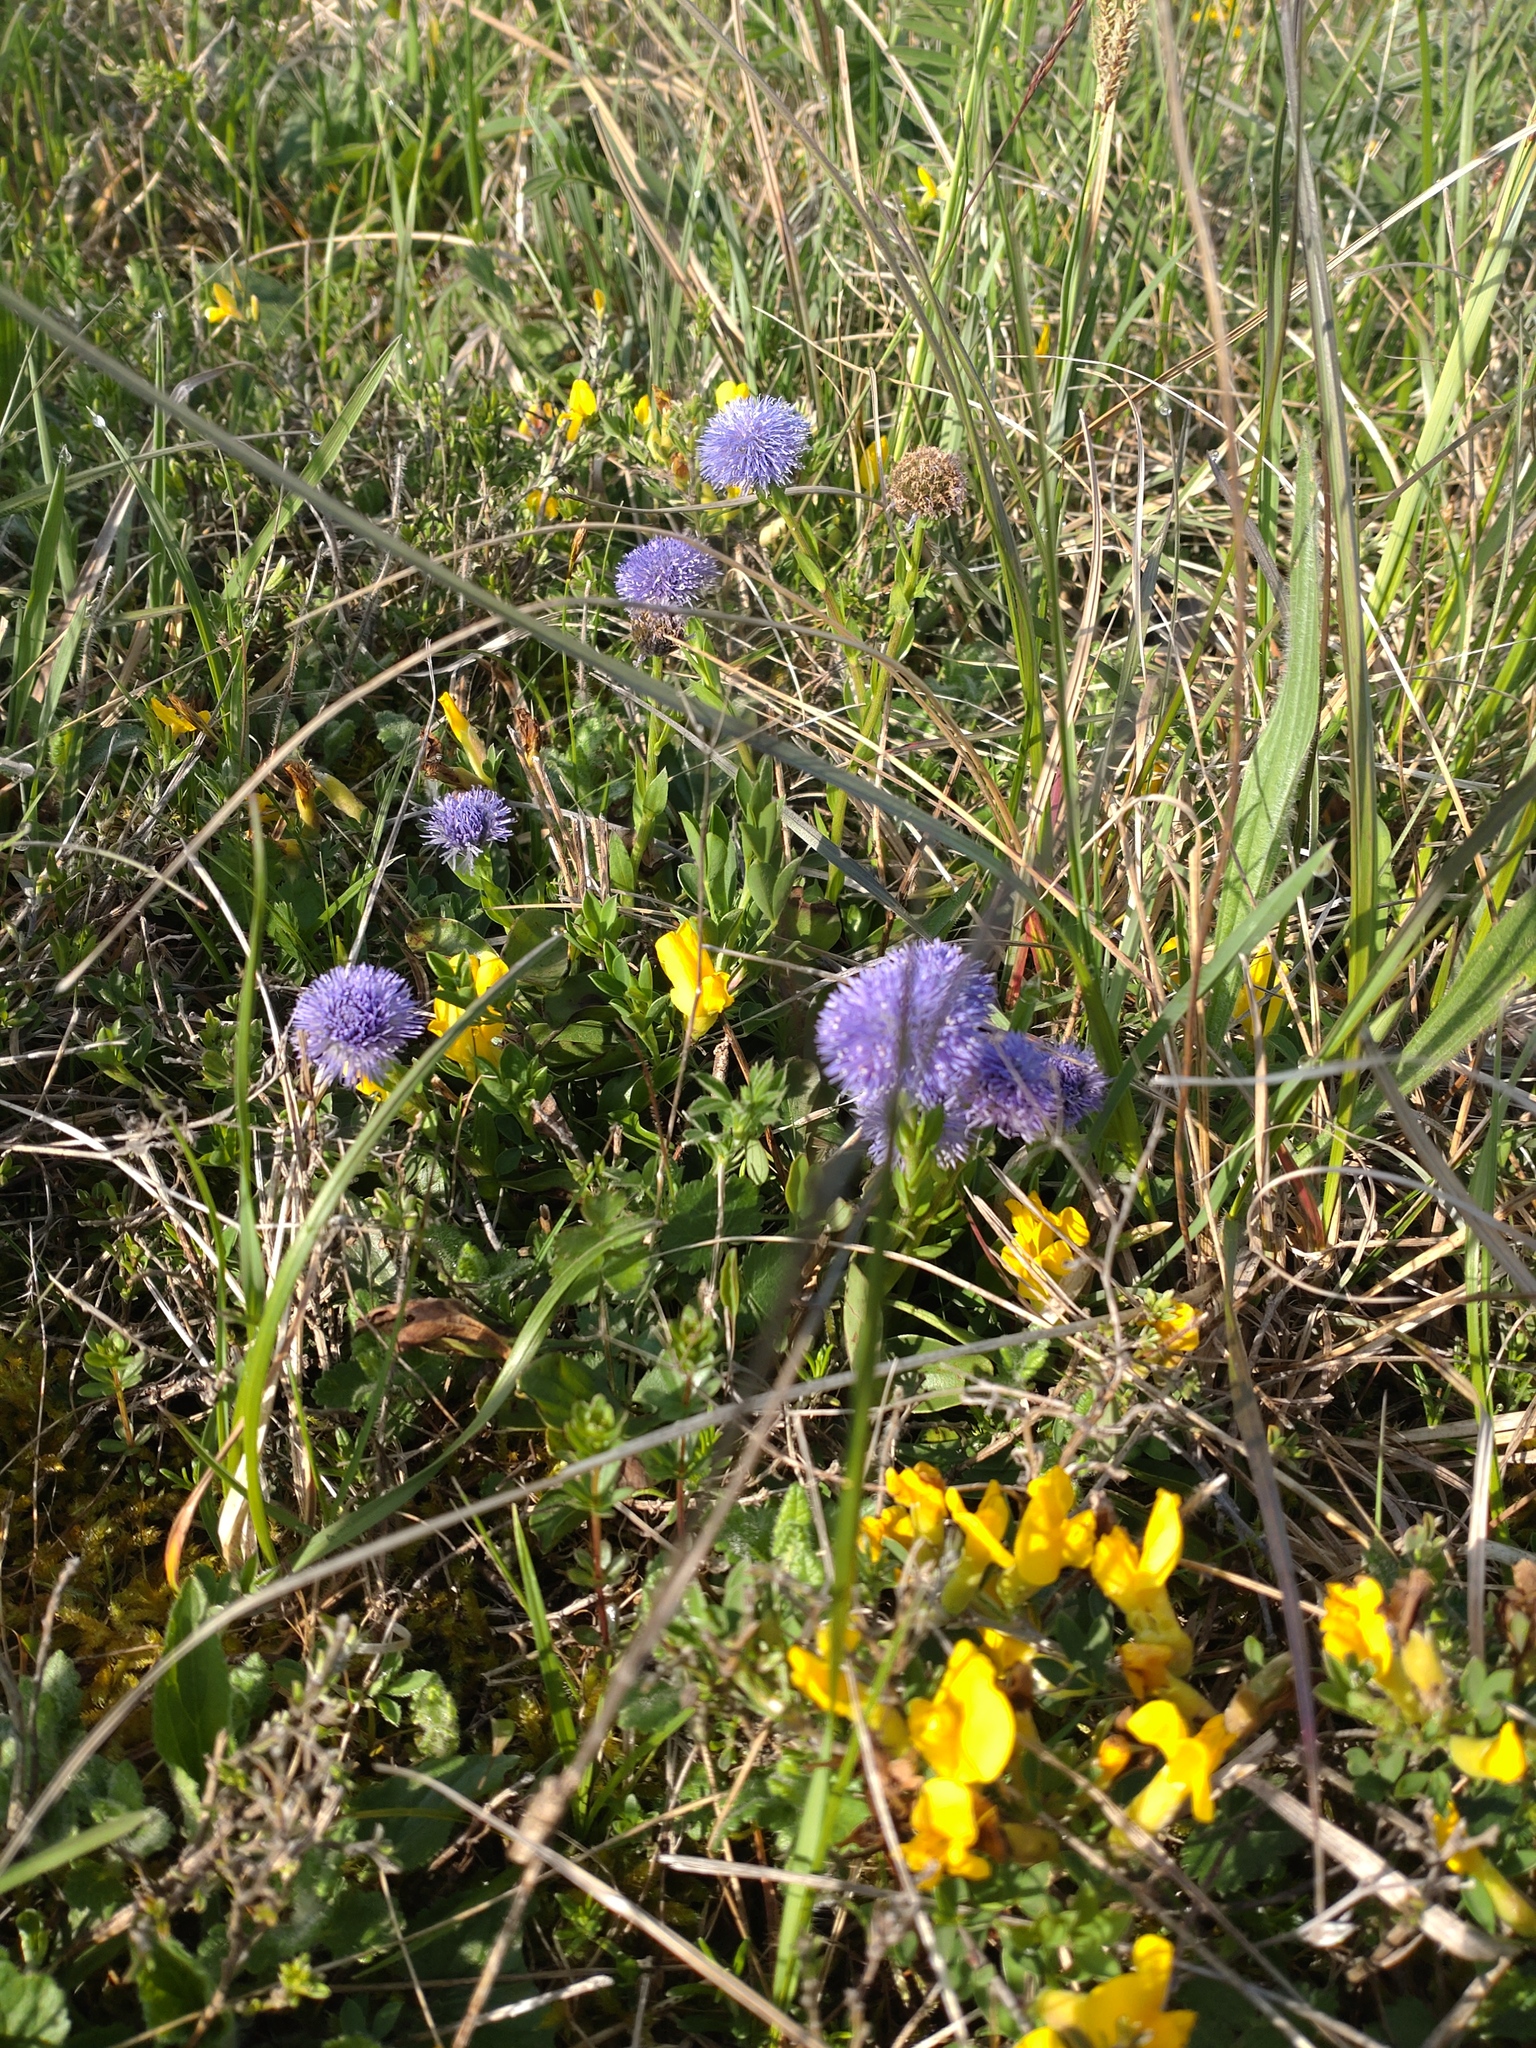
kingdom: Plantae
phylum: Tracheophyta
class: Magnoliopsida
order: Lamiales
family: Plantaginaceae
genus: Globularia
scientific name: Globularia bisnagarica
